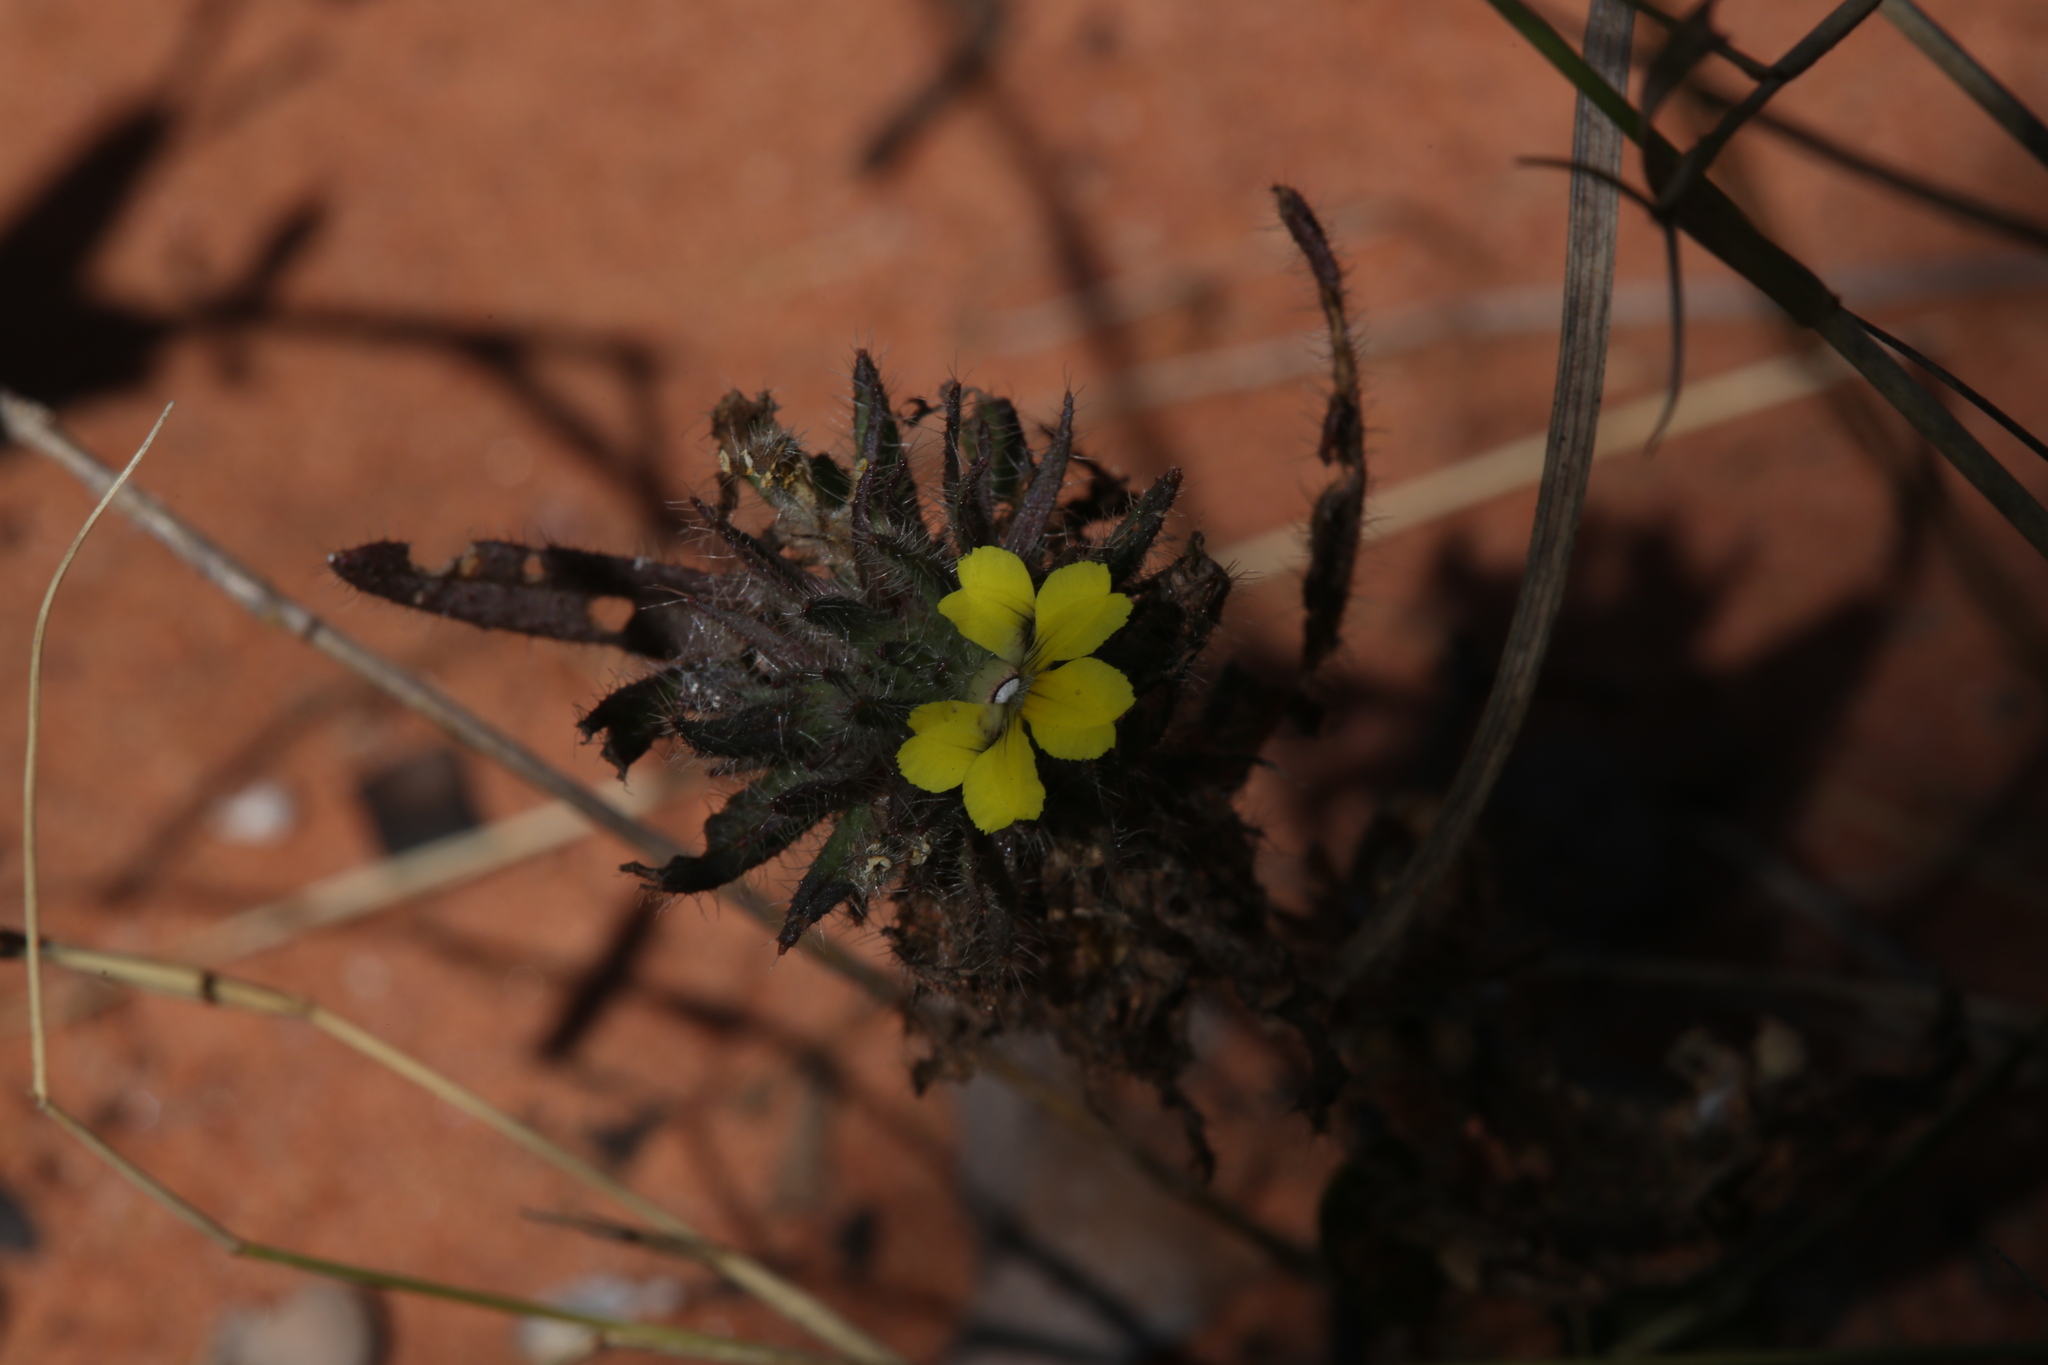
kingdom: Plantae
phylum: Tracheophyta
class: Magnoliopsida
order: Asterales
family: Goodeniaceae
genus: Goodenia
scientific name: Goodenia sepalosa
